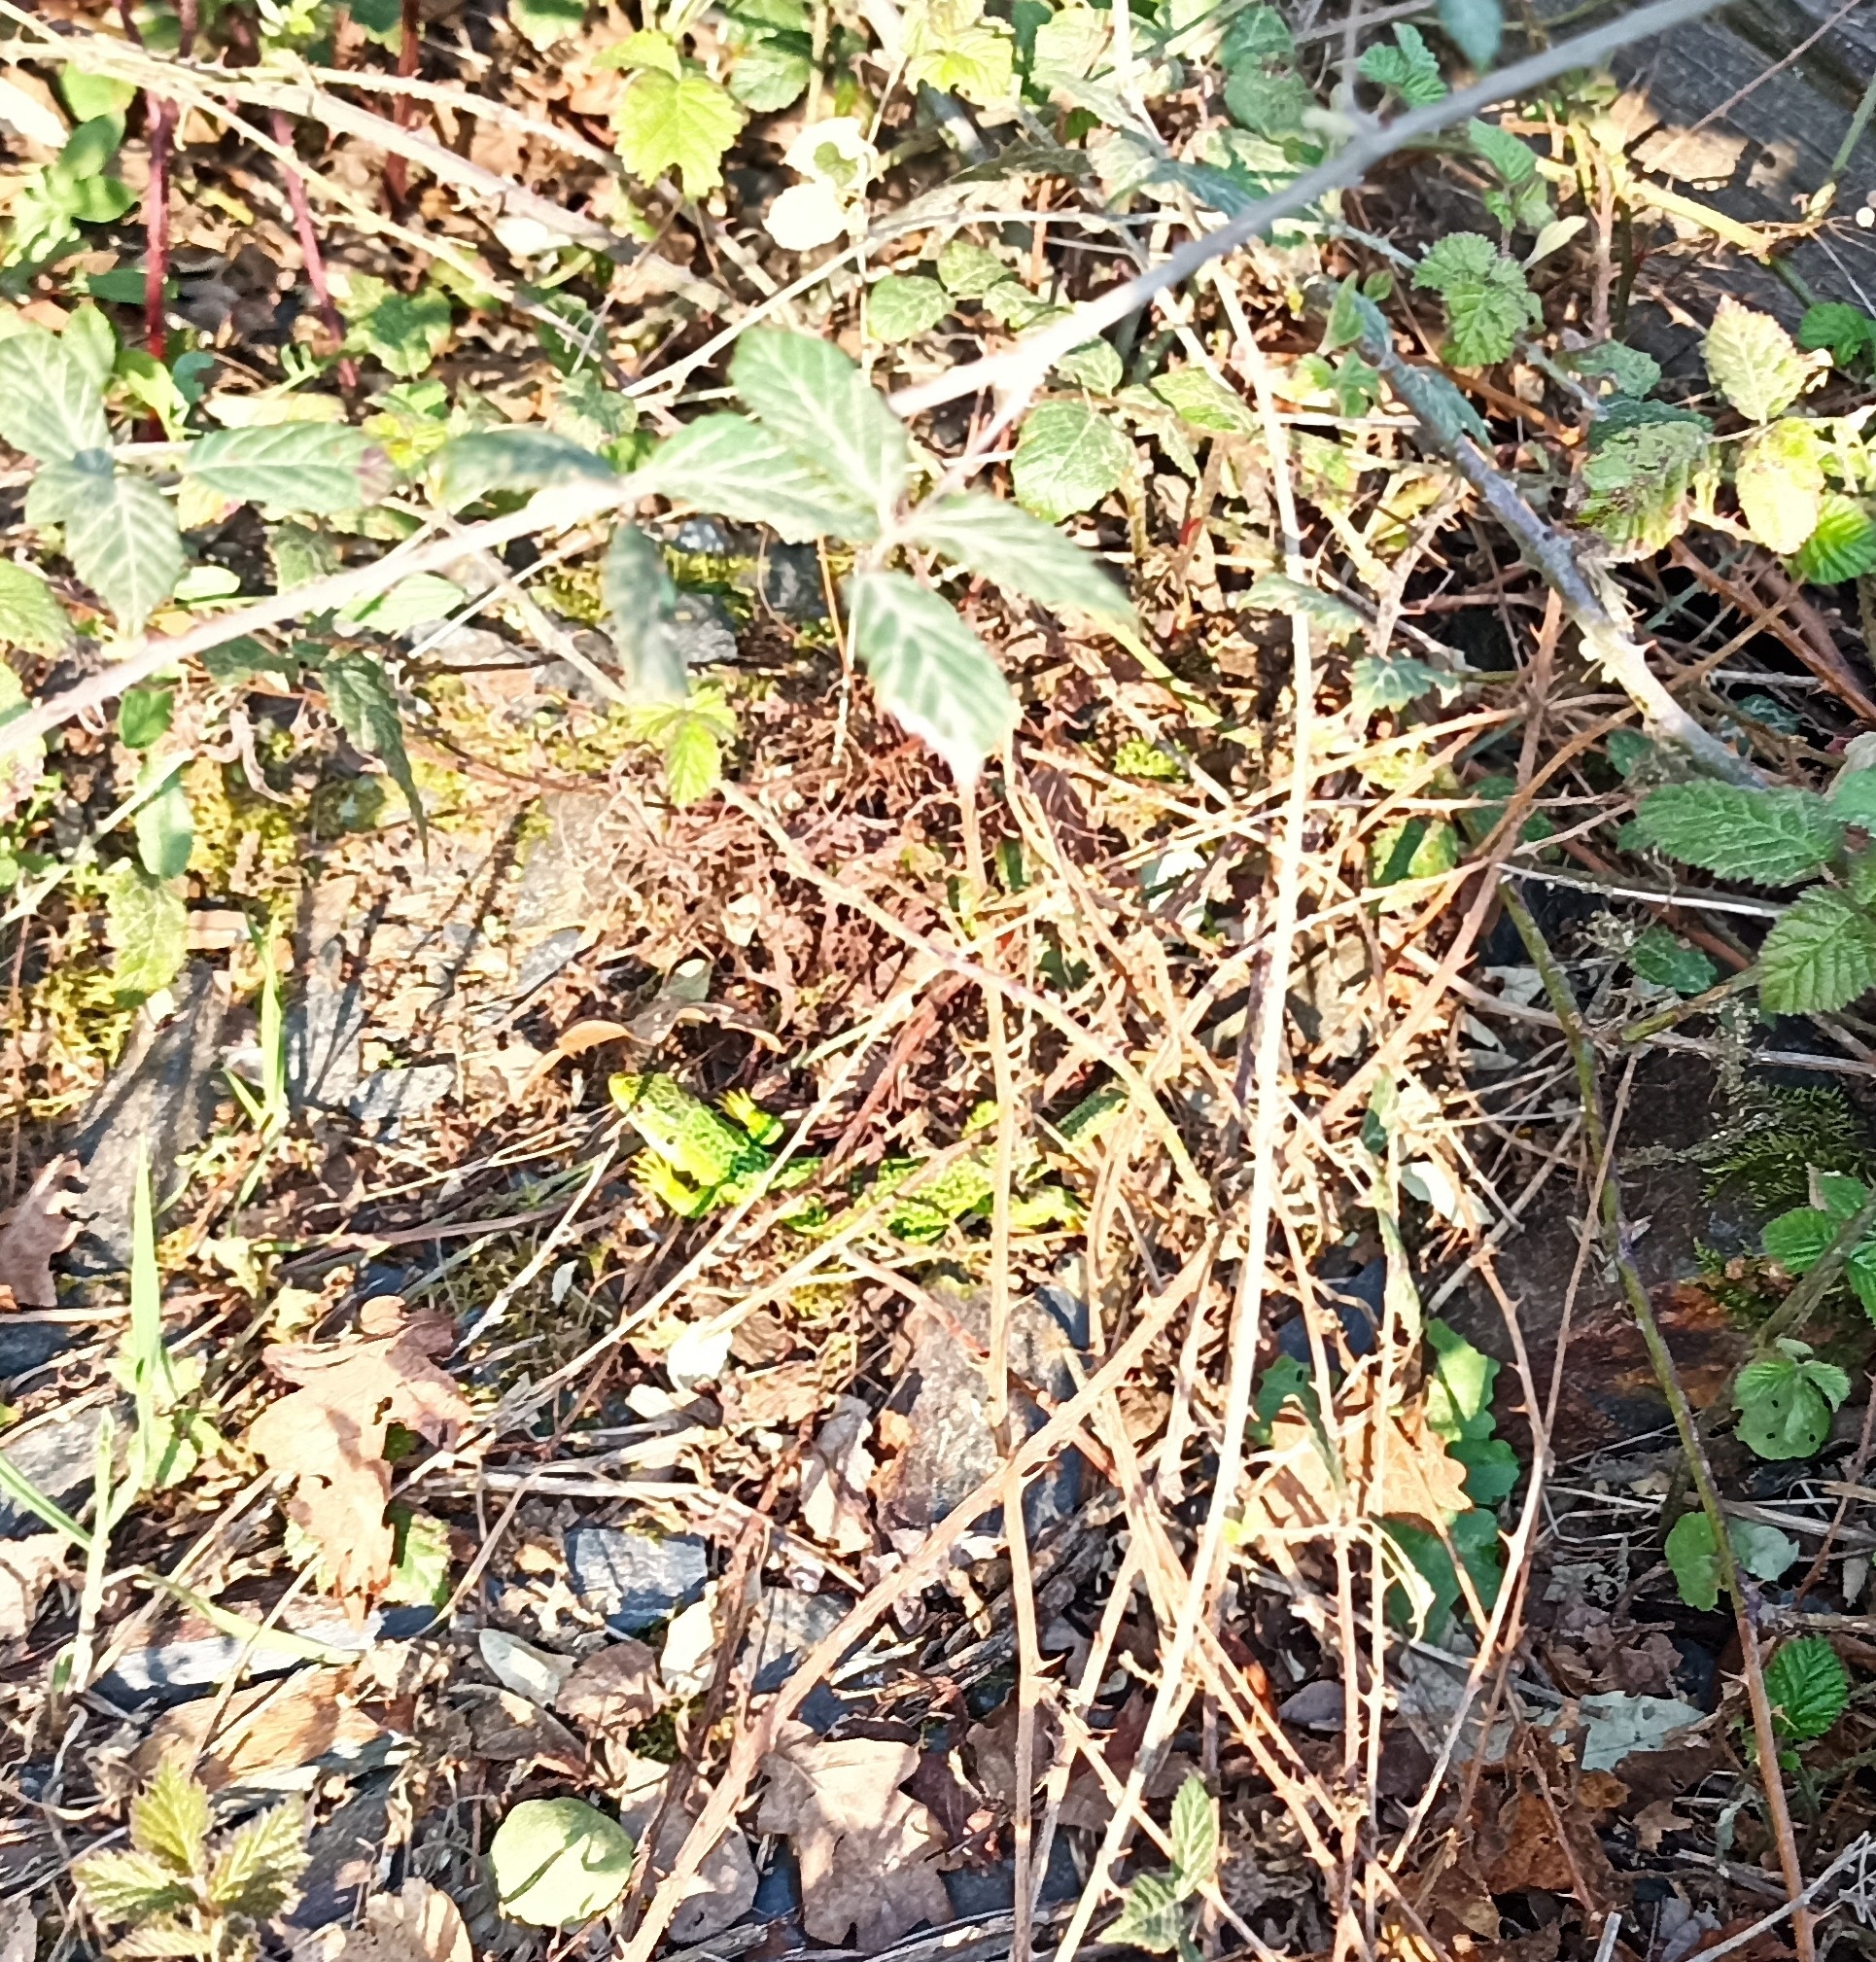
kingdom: Animalia
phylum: Chordata
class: Squamata
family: Lacertidae
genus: Lacerta
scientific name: Lacerta bilineata
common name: Western green lizard
